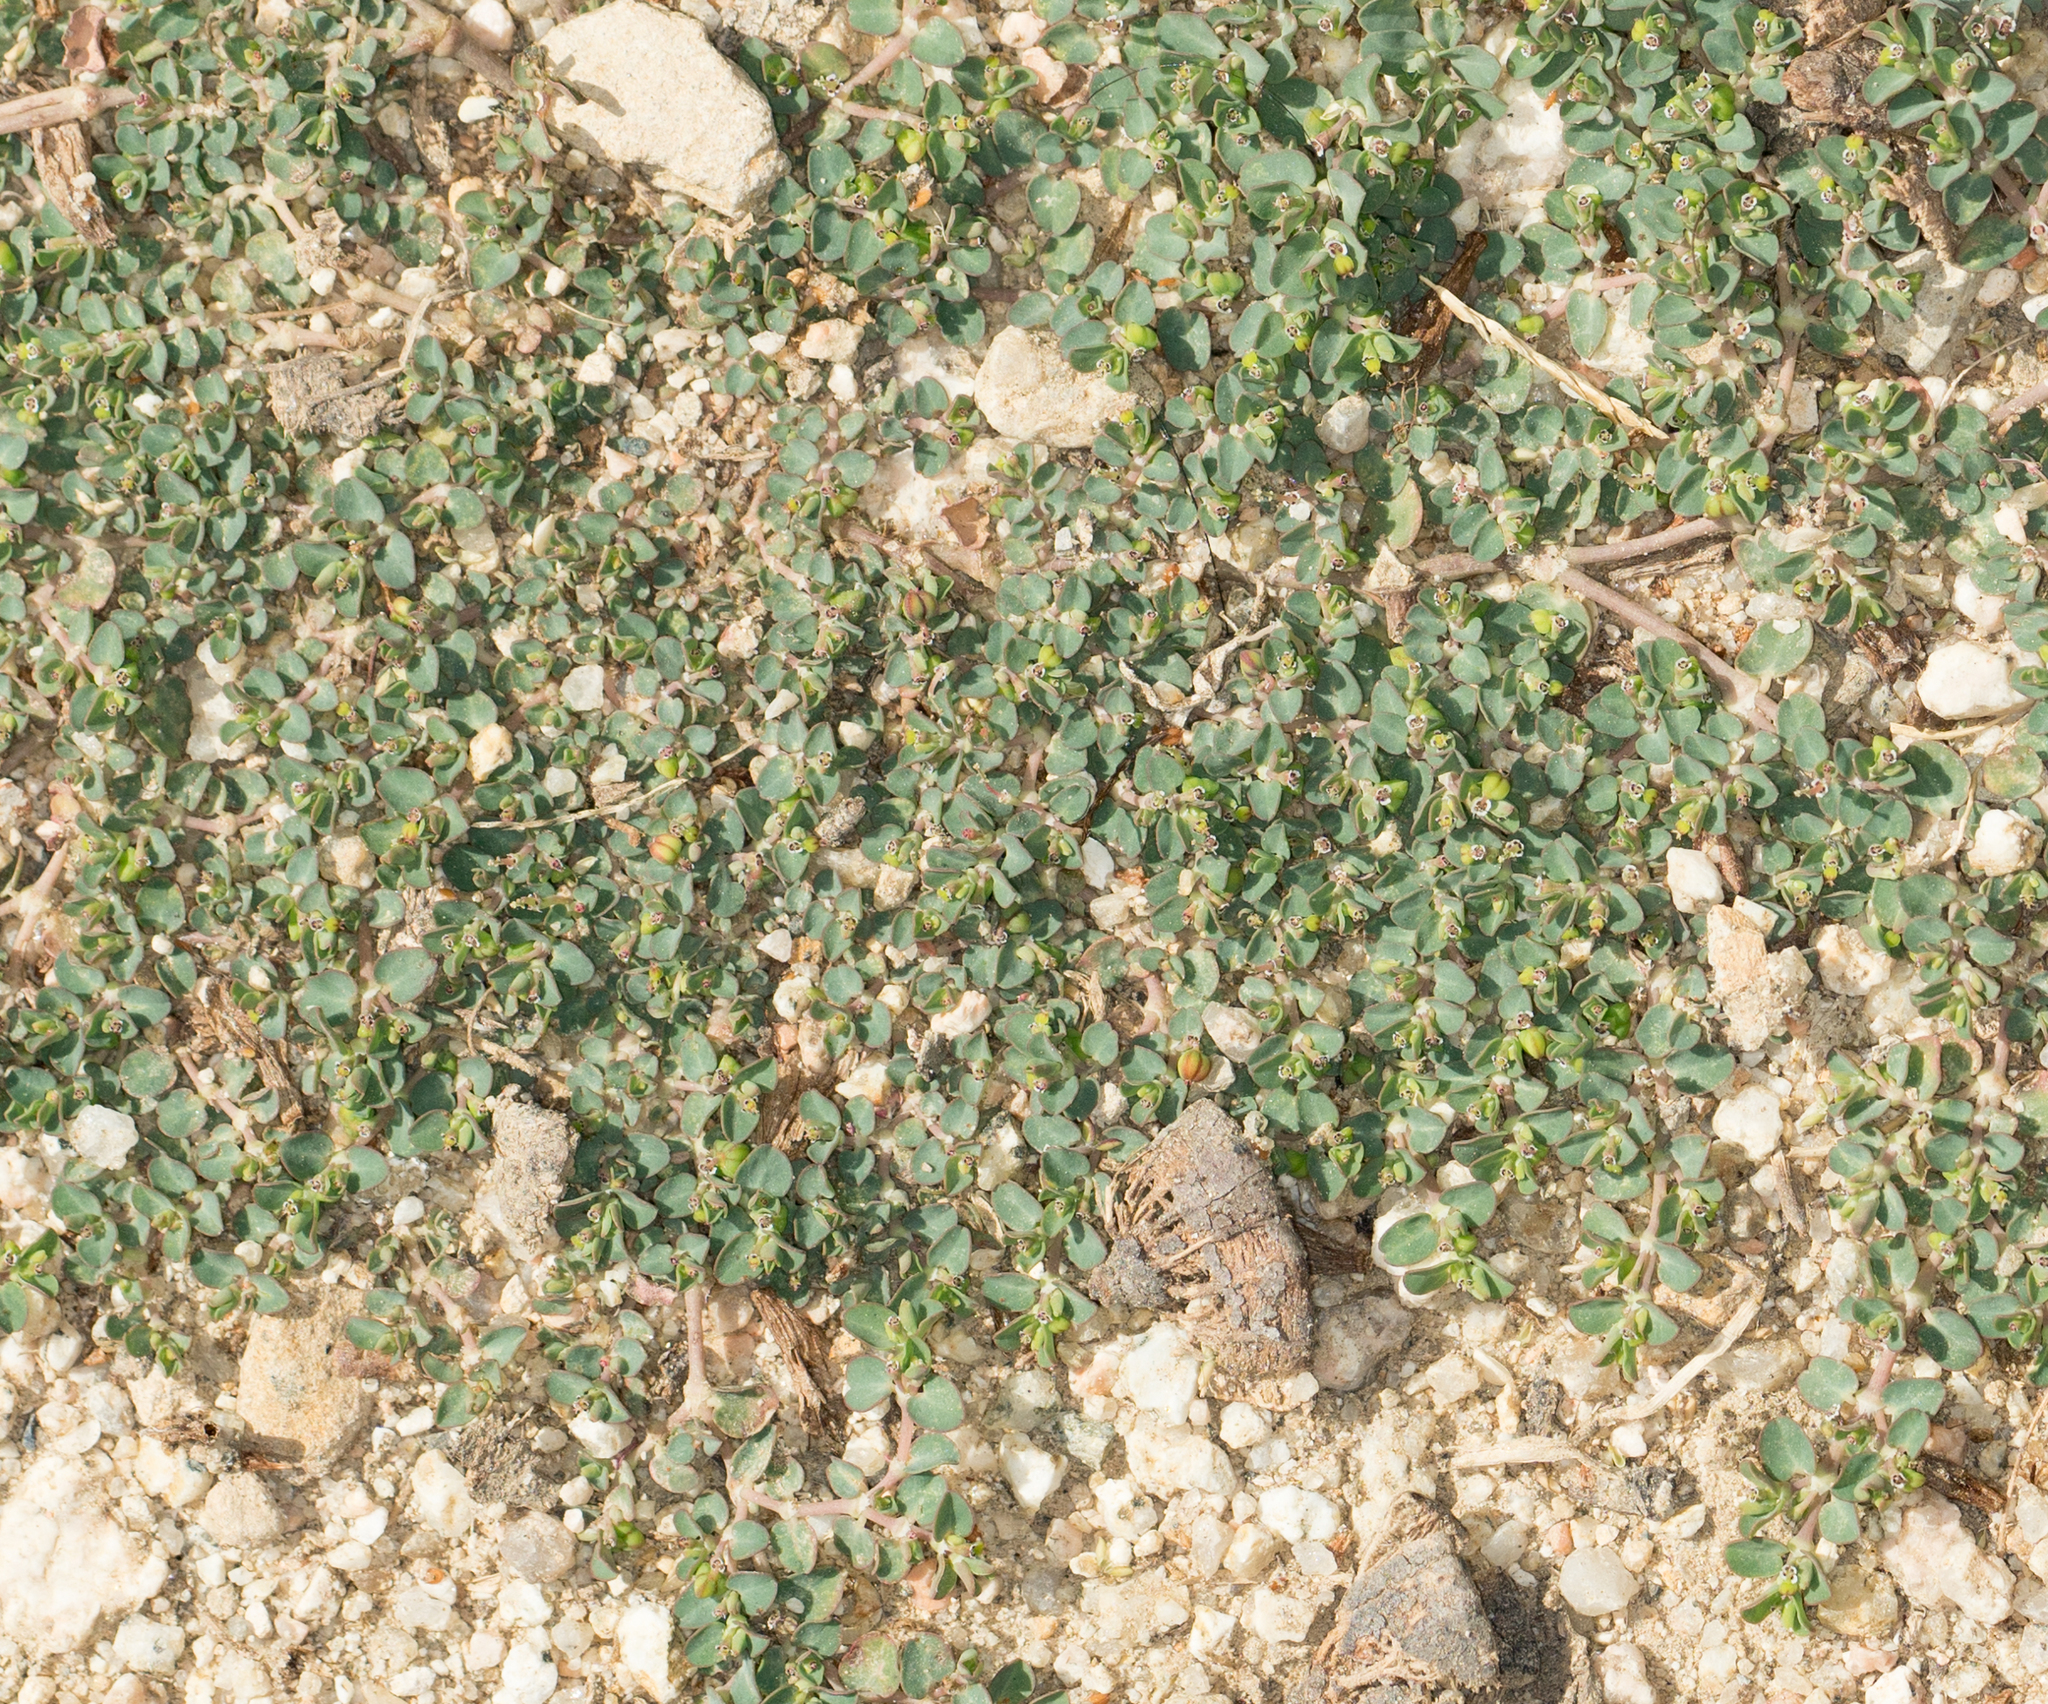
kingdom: Plantae
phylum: Tracheophyta
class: Magnoliopsida
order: Malpighiales
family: Euphorbiaceae
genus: Euphorbia
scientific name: Euphorbia serpens
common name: Matted sandmat
